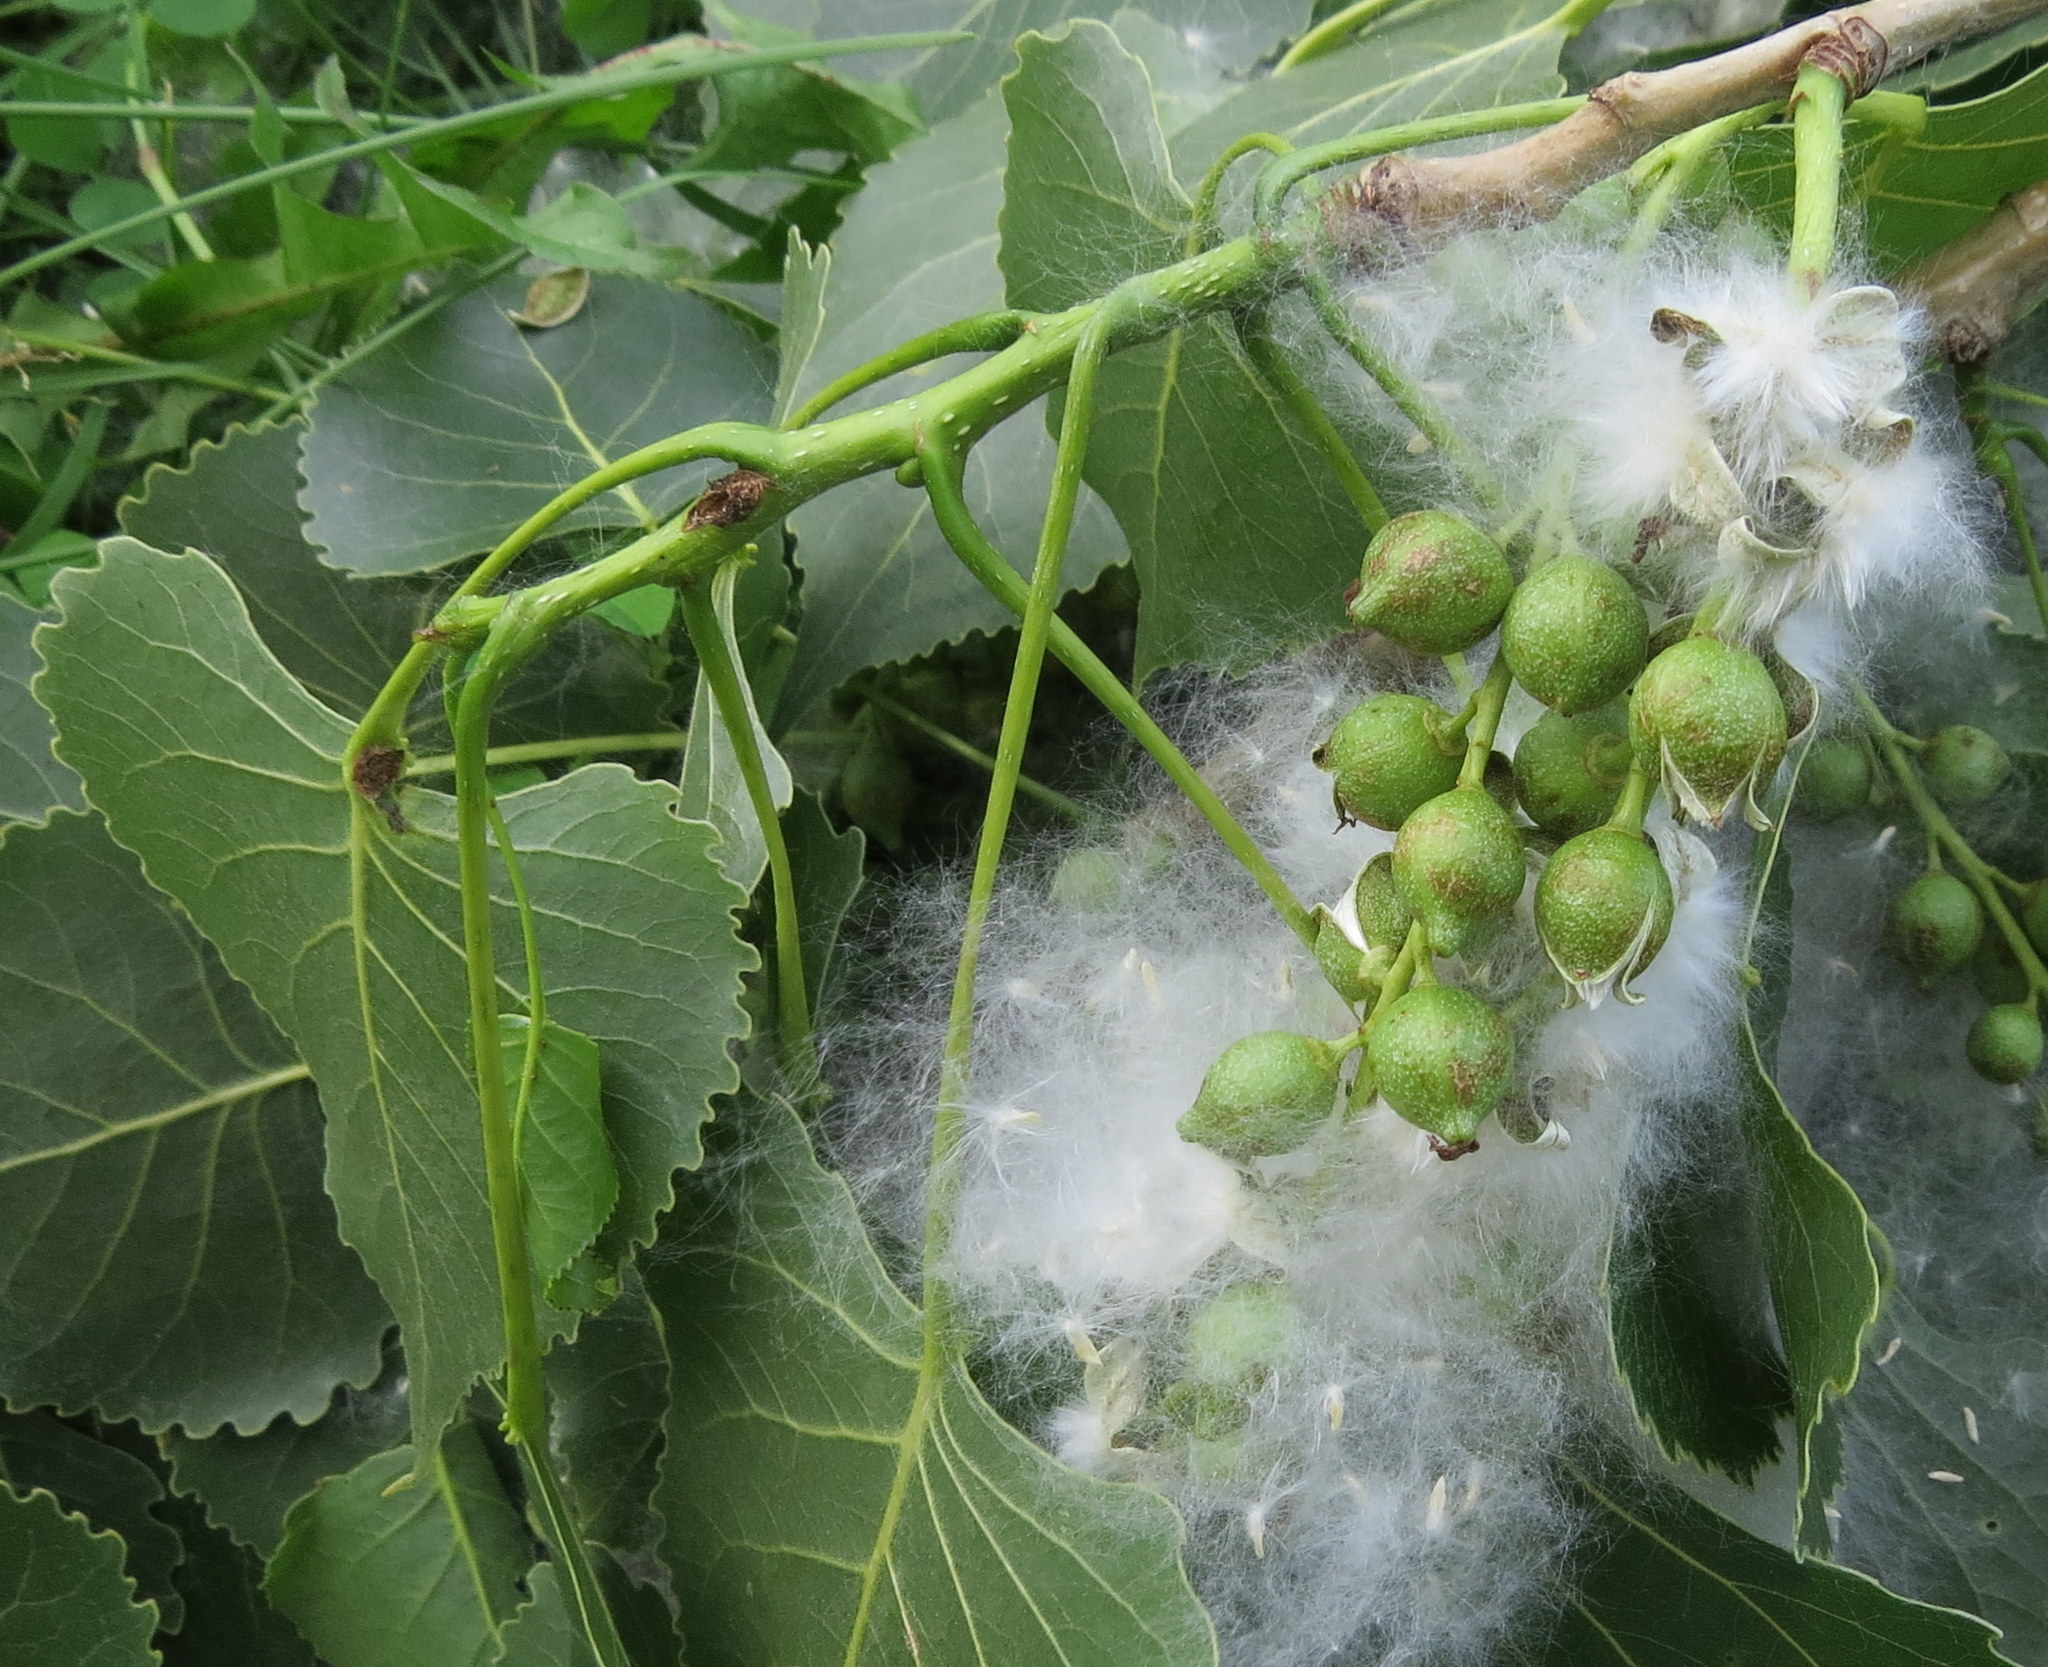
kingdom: Plantae
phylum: Tracheophyta
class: Magnoliopsida
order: Malpighiales
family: Salicaceae
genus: Populus
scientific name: Populus deltoides
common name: Eastern cottonwood
